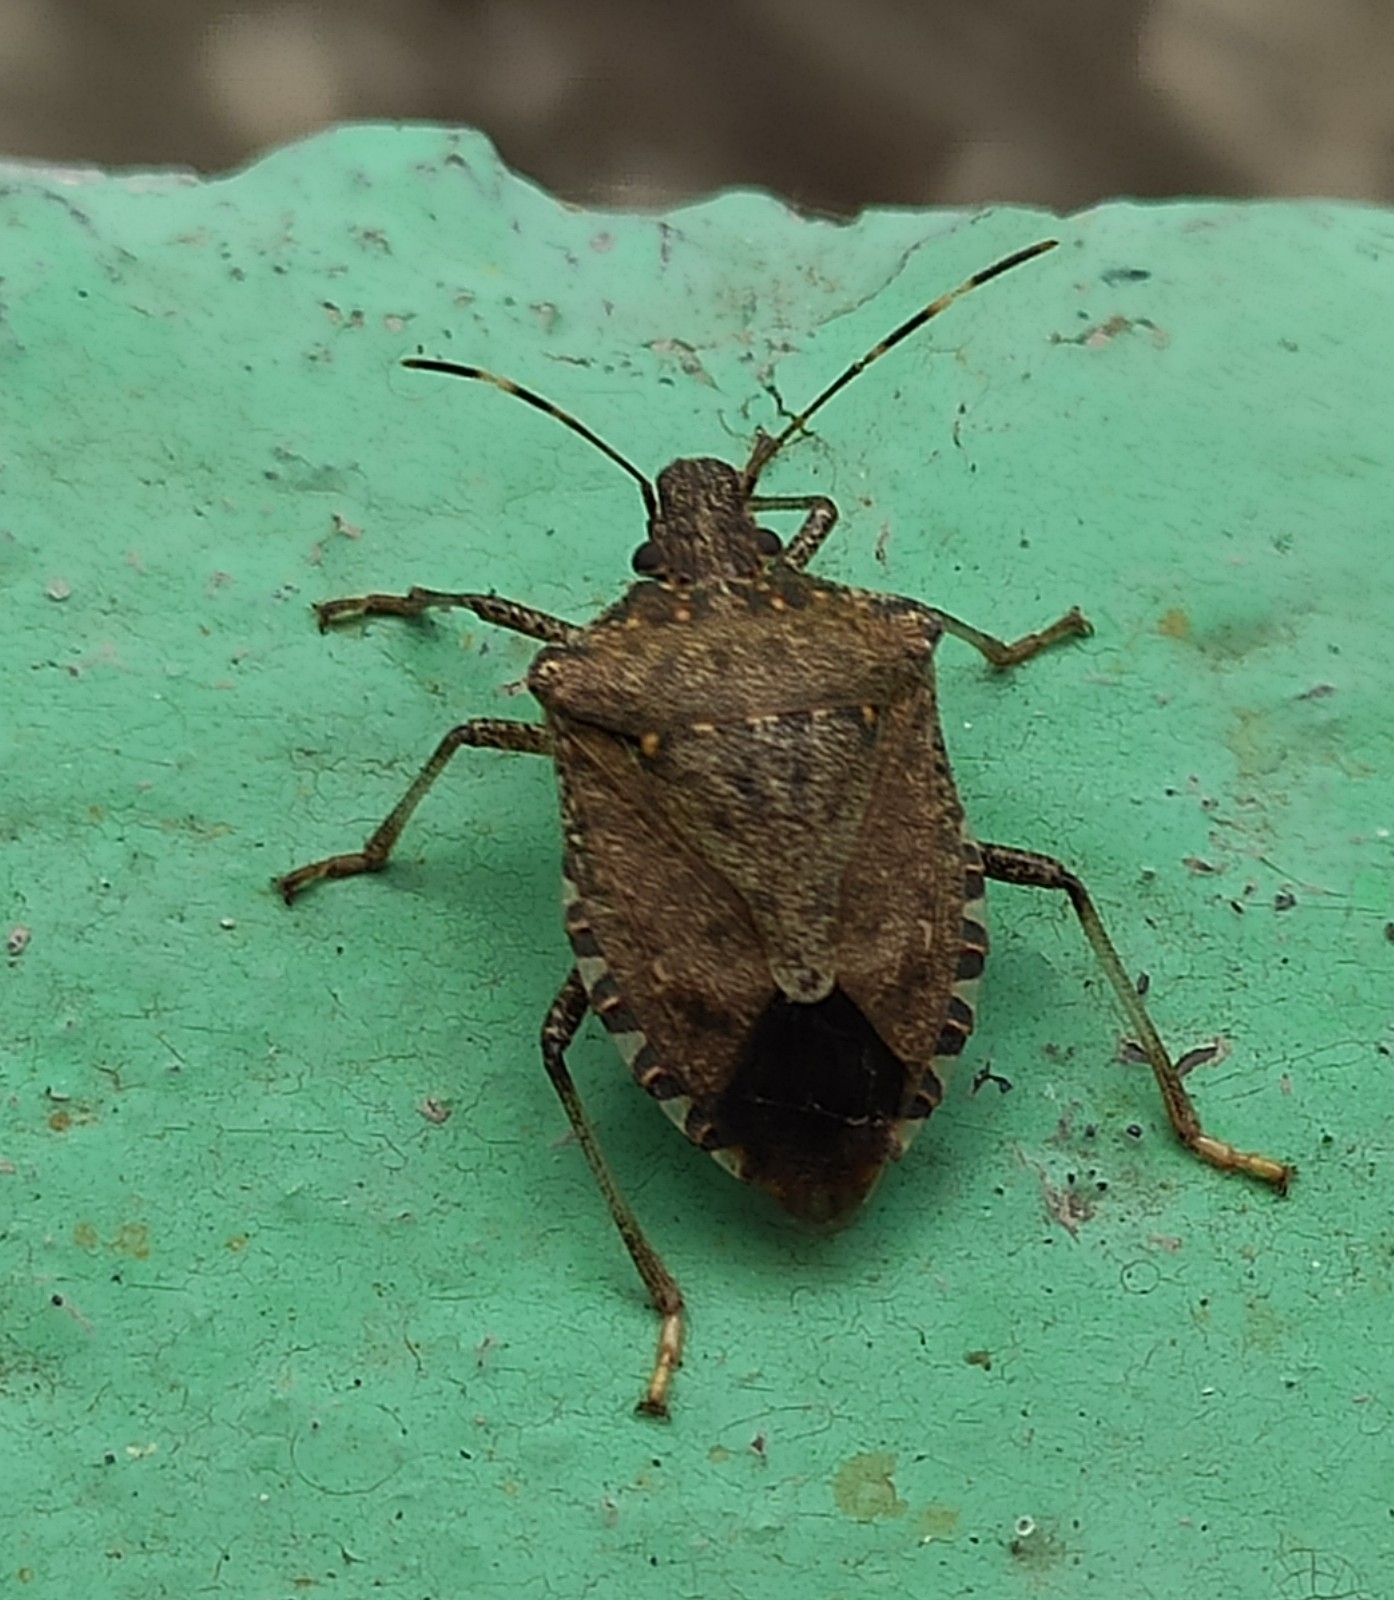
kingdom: Animalia
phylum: Arthropoda
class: Insecta
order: Hemiptera
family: Pentatomidae
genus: Halyomorpha
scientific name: Halyomorpha halys
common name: Brown marmorated stink bug
